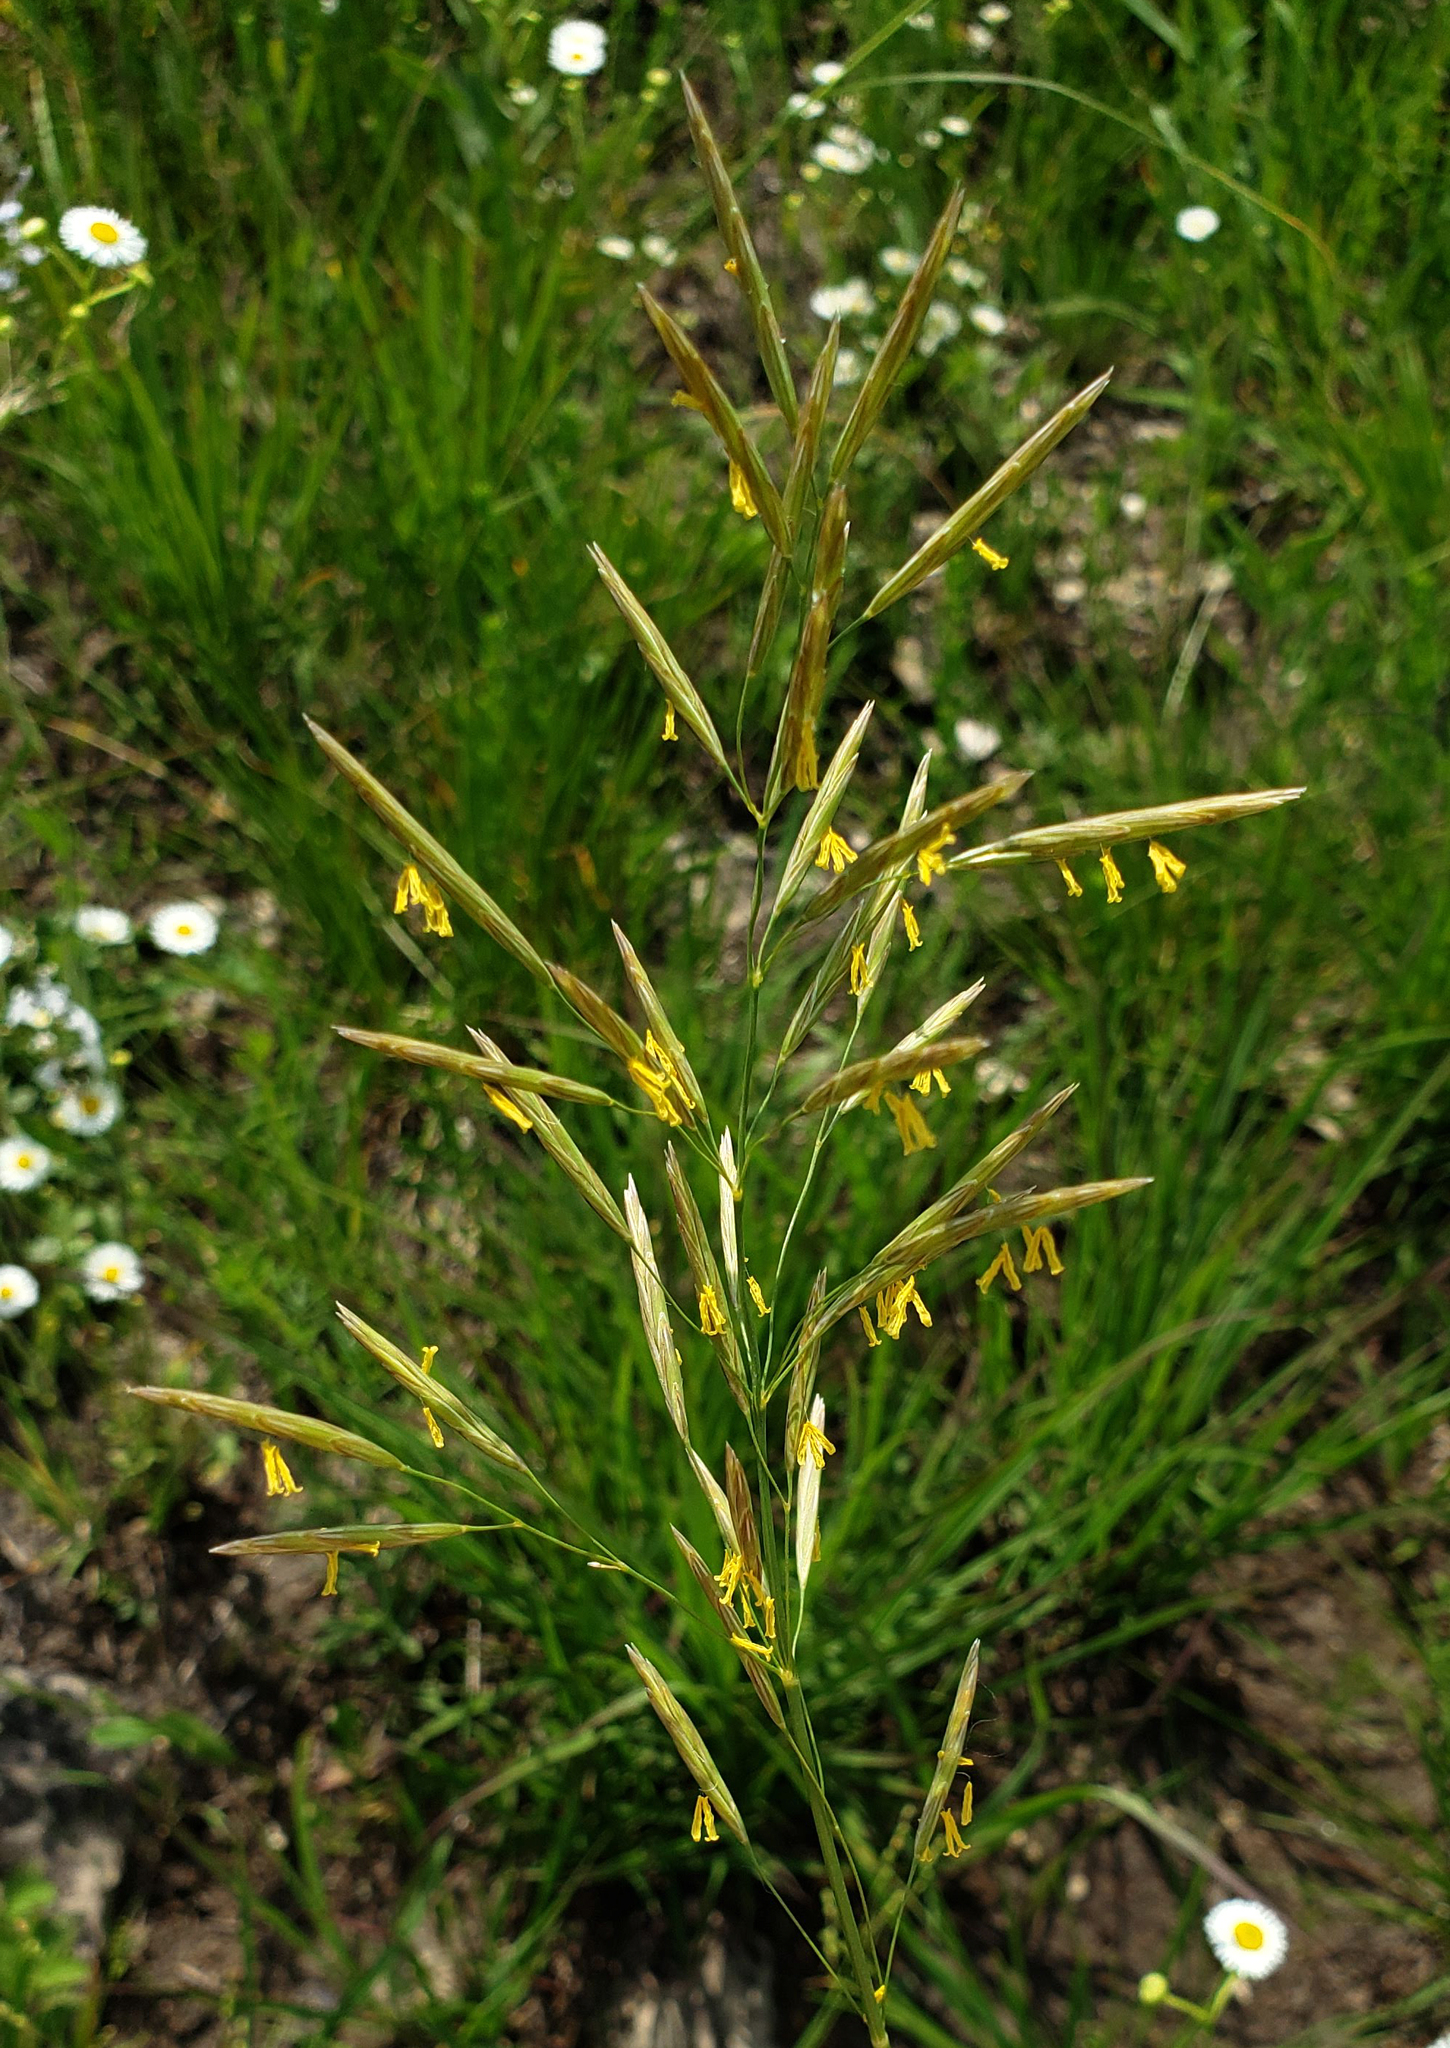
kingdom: Plantae
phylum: Tracheophyta
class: Liliopsida
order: Poales
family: Poaceae
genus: Bromus
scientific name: Bromus inermis
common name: Smooth brome
